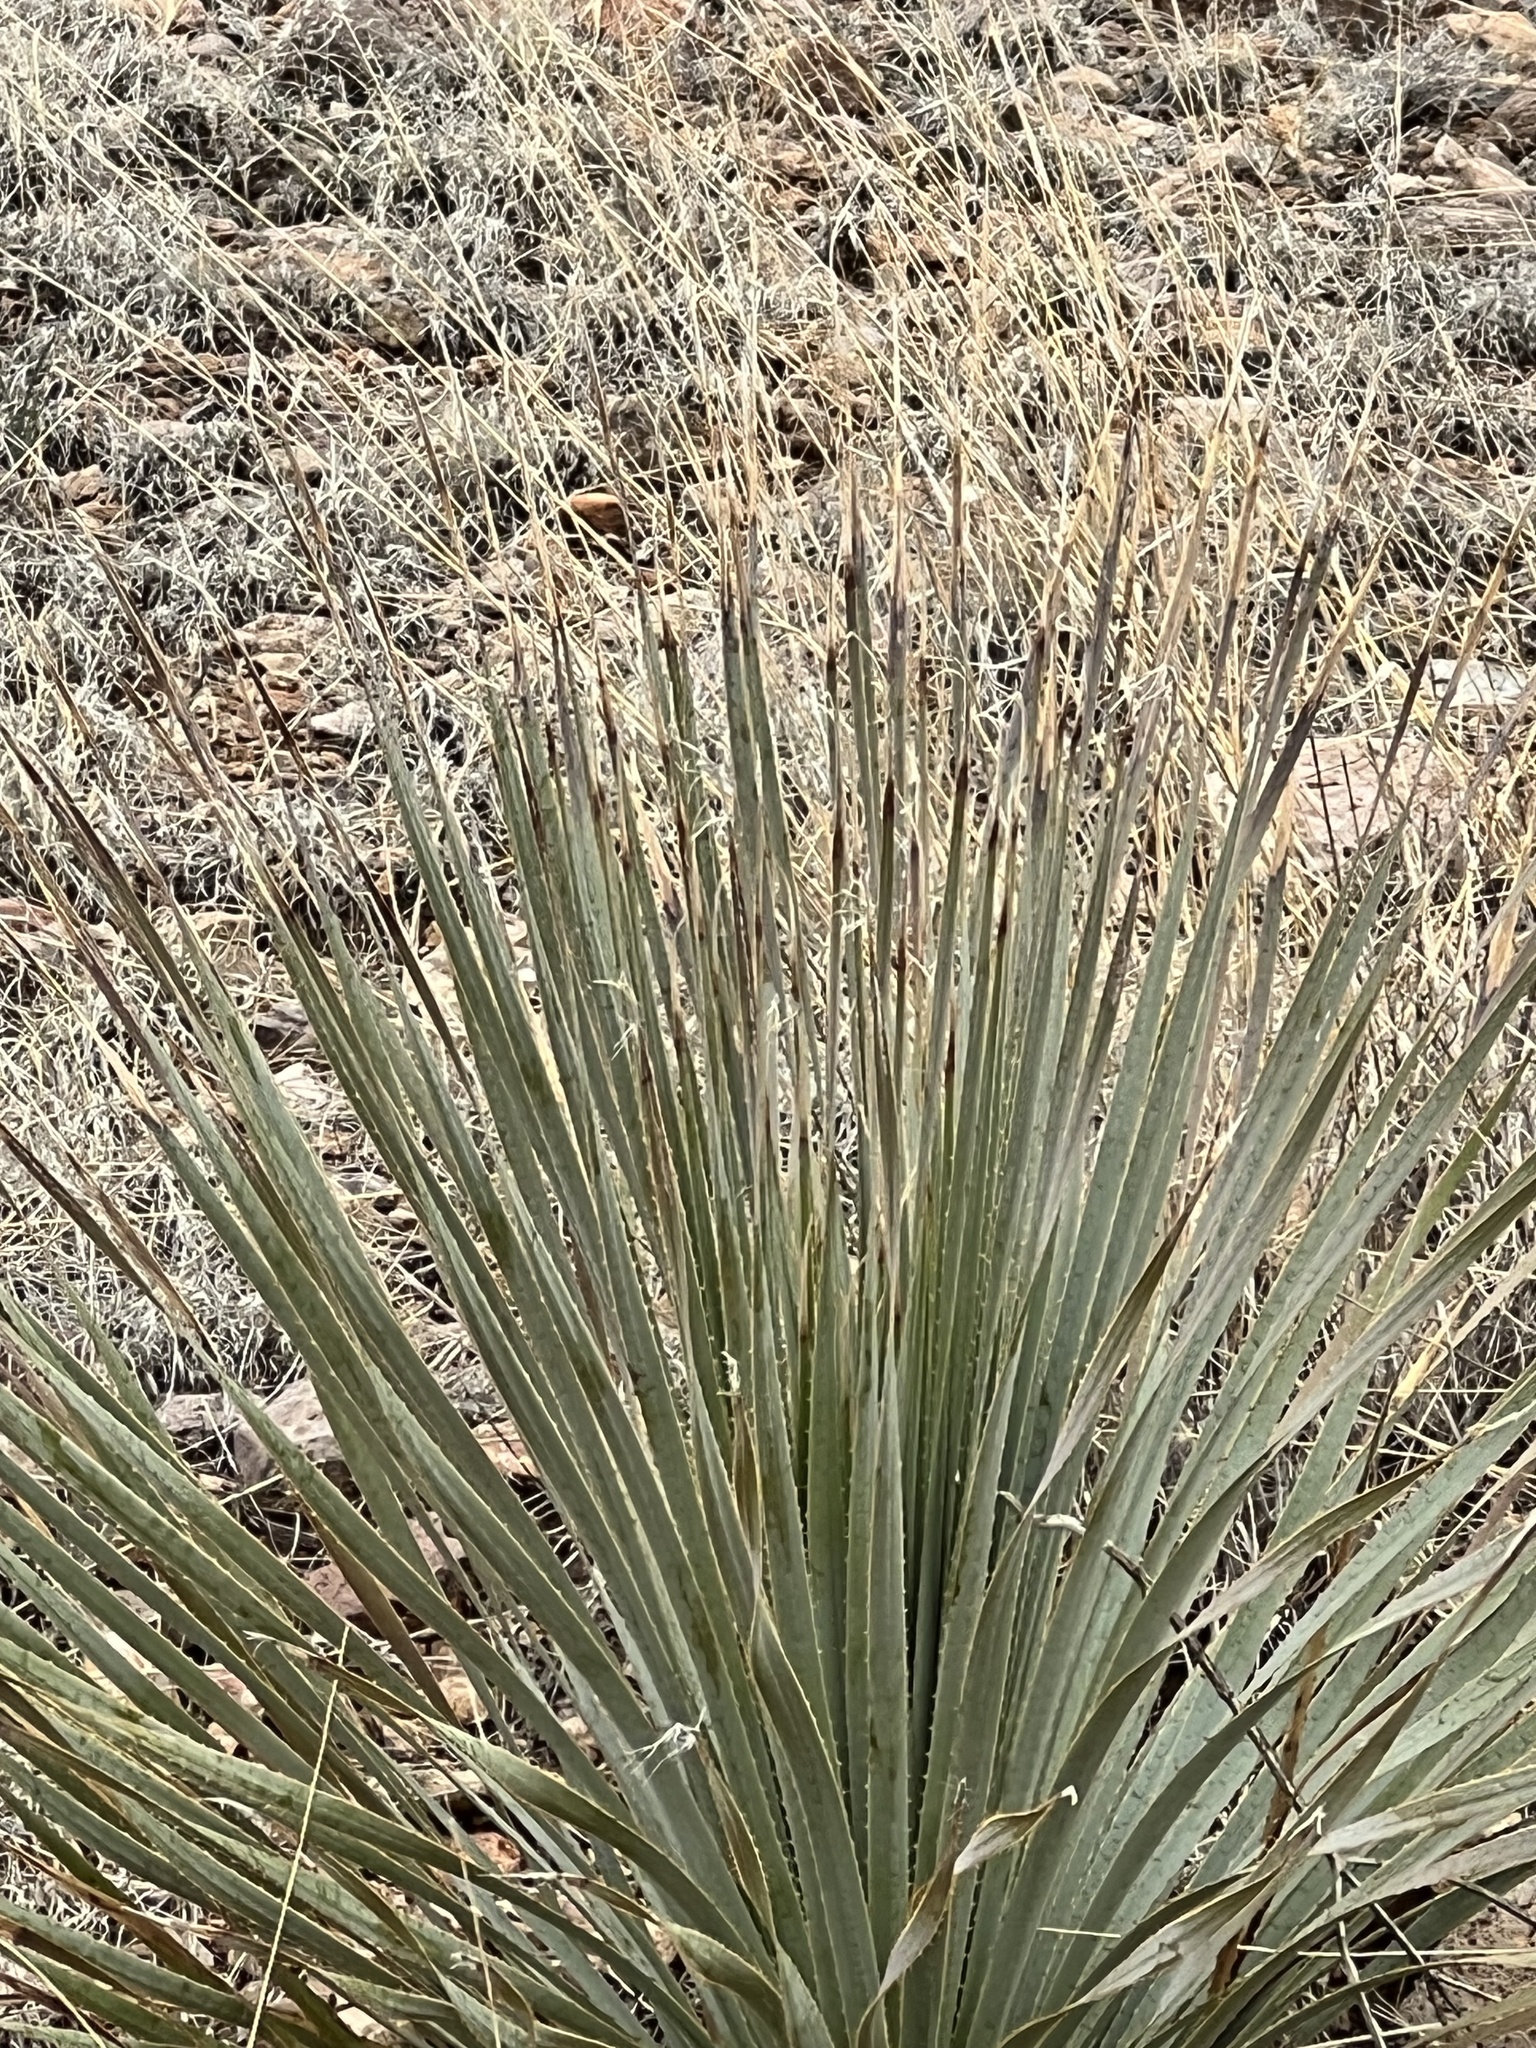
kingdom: Plantae
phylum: Tracheophyta
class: Liliopsida
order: Asparagales
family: Asparagaceae
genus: Dasylirion
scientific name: Dasylirion wheeleri
